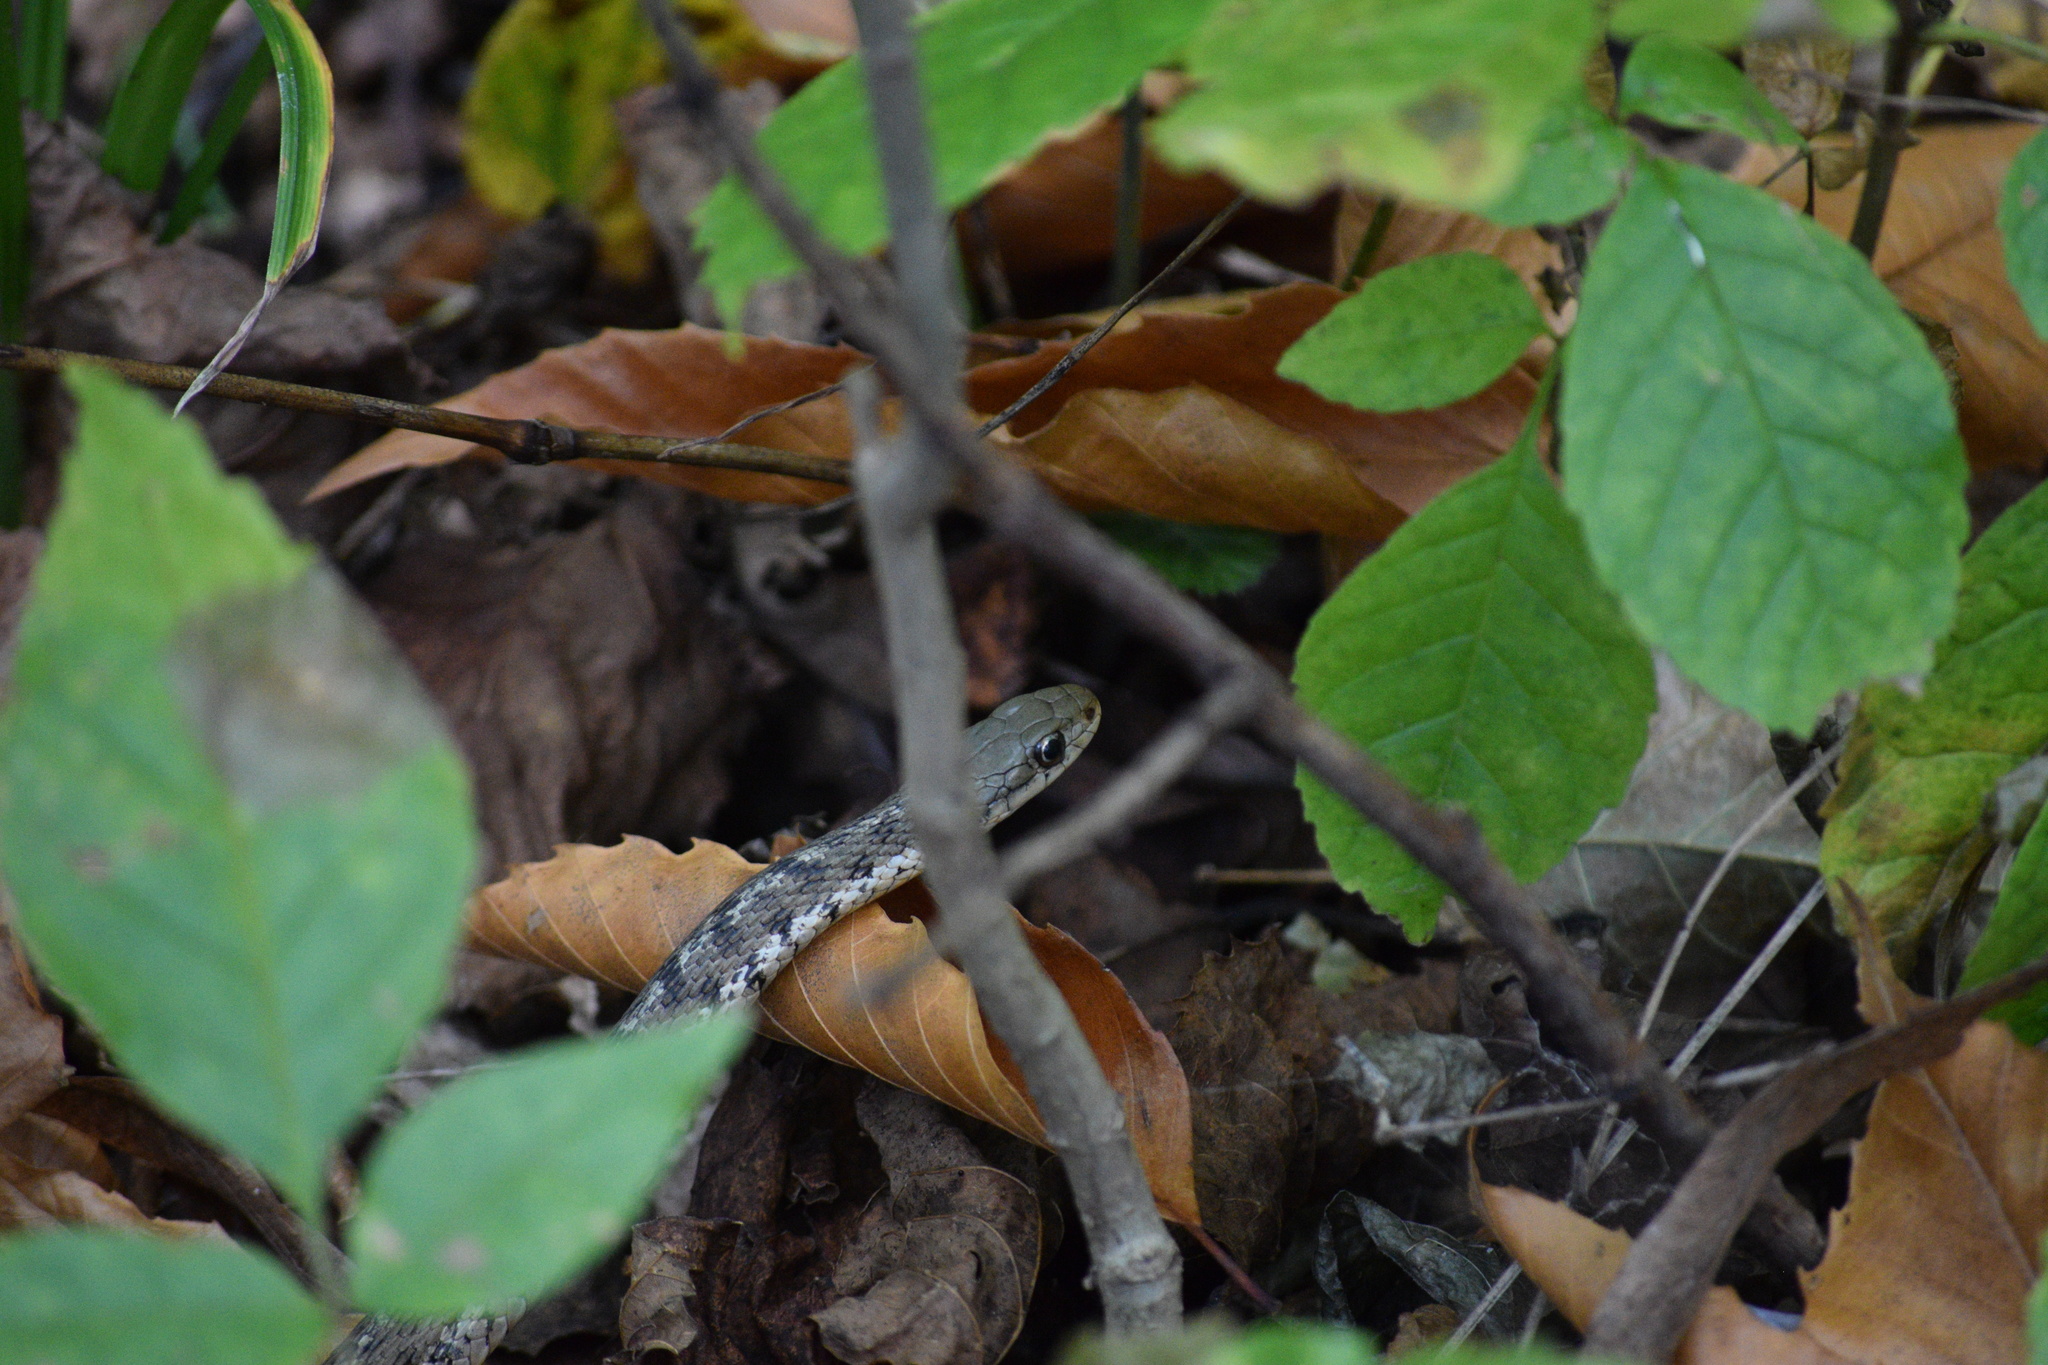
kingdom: Animalia
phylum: Chordata
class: Squamata
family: Colubridae
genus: Thamnophis
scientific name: Thamnophis sirtalis
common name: Common garter snake
